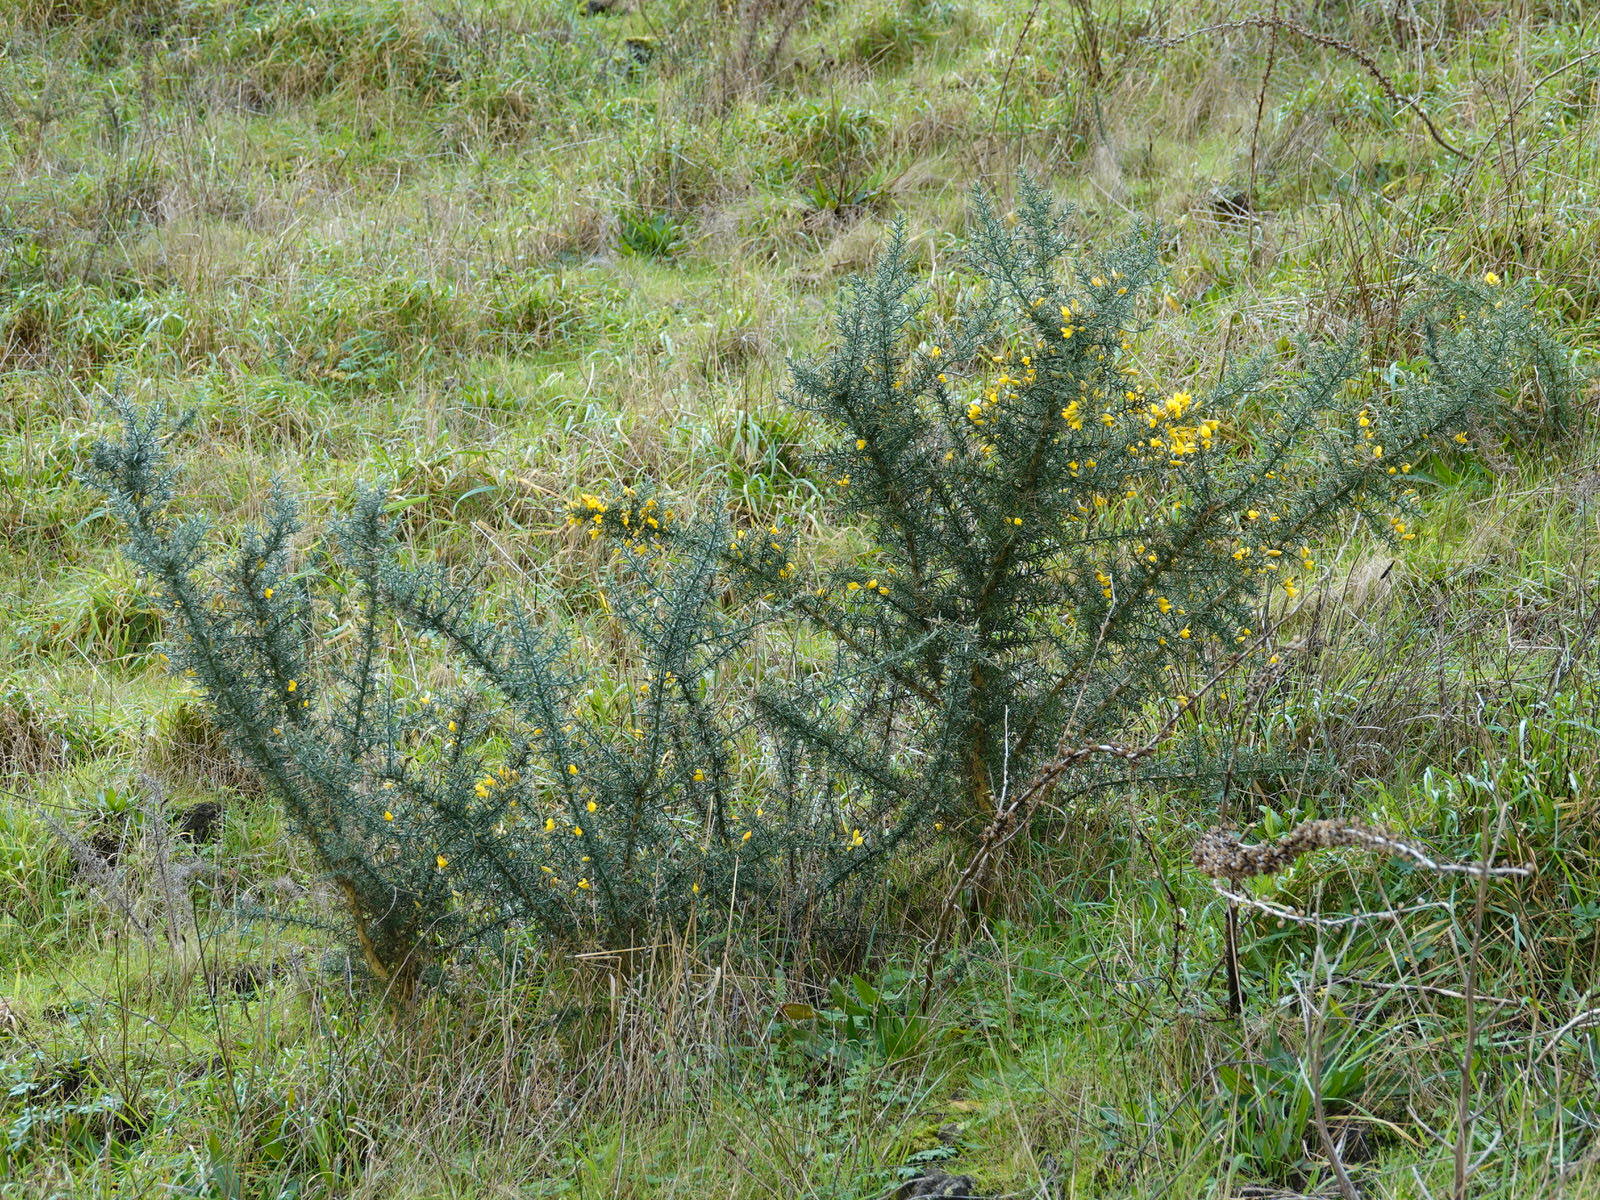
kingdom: Plantae
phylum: Tracheophyta
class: Magnoliopsida
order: Fabales
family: Fabaceae
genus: Ulex
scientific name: Ulex europaeus
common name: Common gorse
